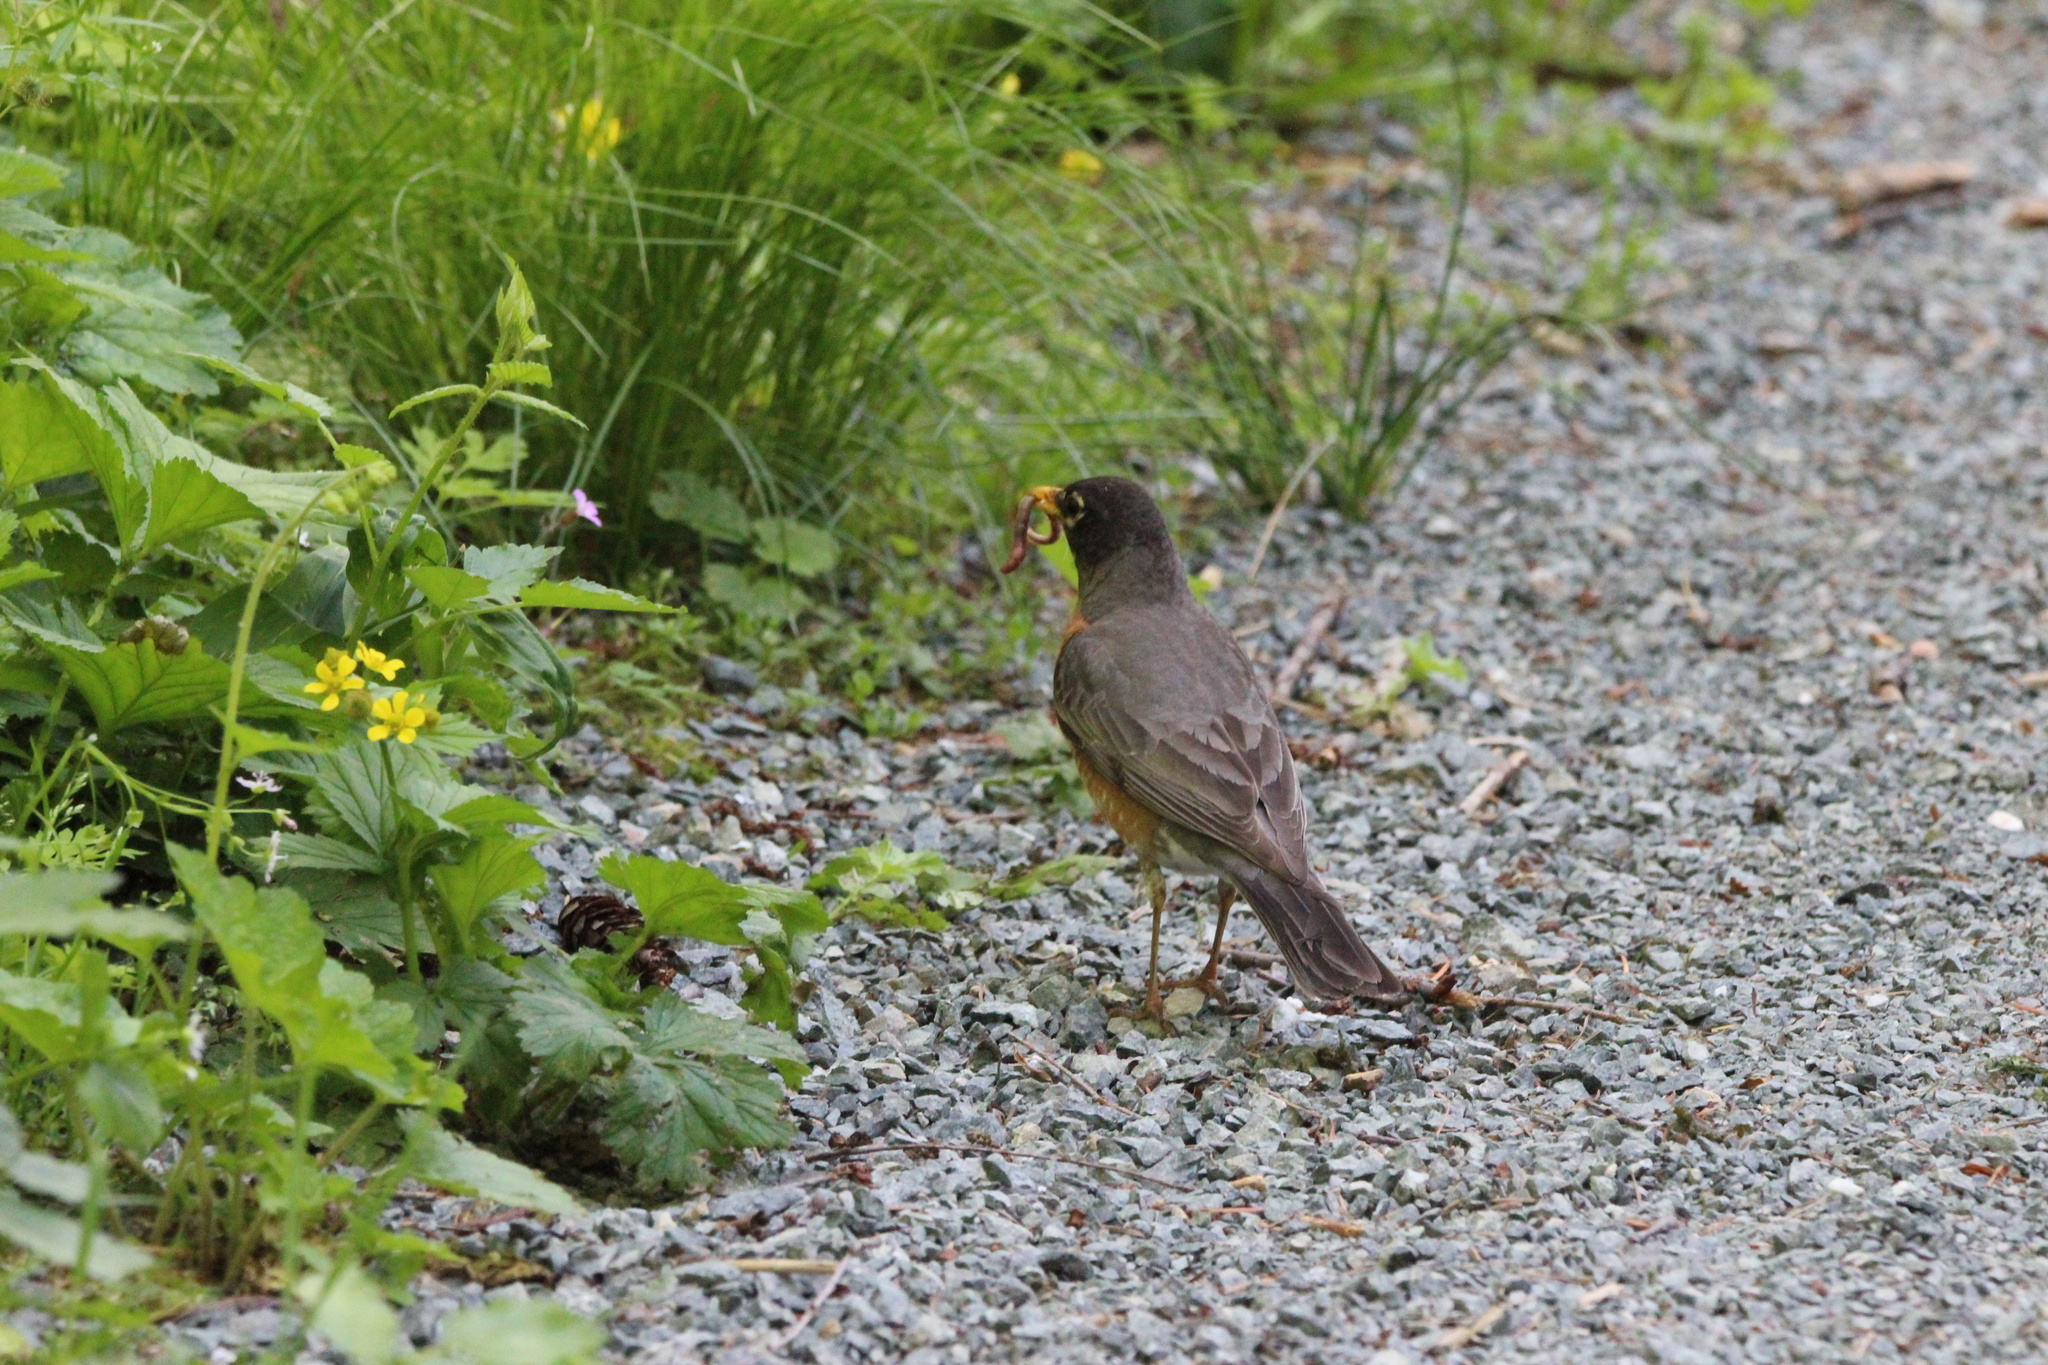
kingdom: Animalia
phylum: Chordata
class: Aves
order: Passeriformes
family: Turdidae
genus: Turdus
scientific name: Turdus migratorius
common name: American robin
